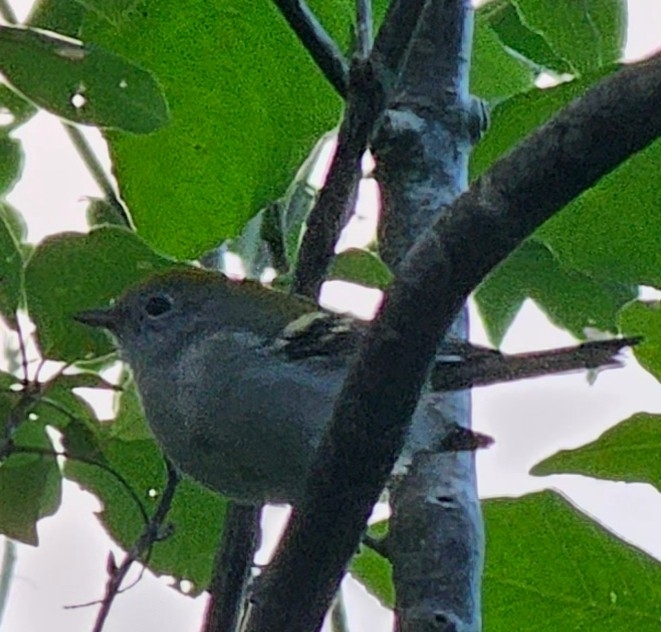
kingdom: Animalia
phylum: Chordata
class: Aves
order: Passeriformes
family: Parulidae
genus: Setophaga
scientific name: Setophaga pensylvanica
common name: Chestnut-sided warbler
